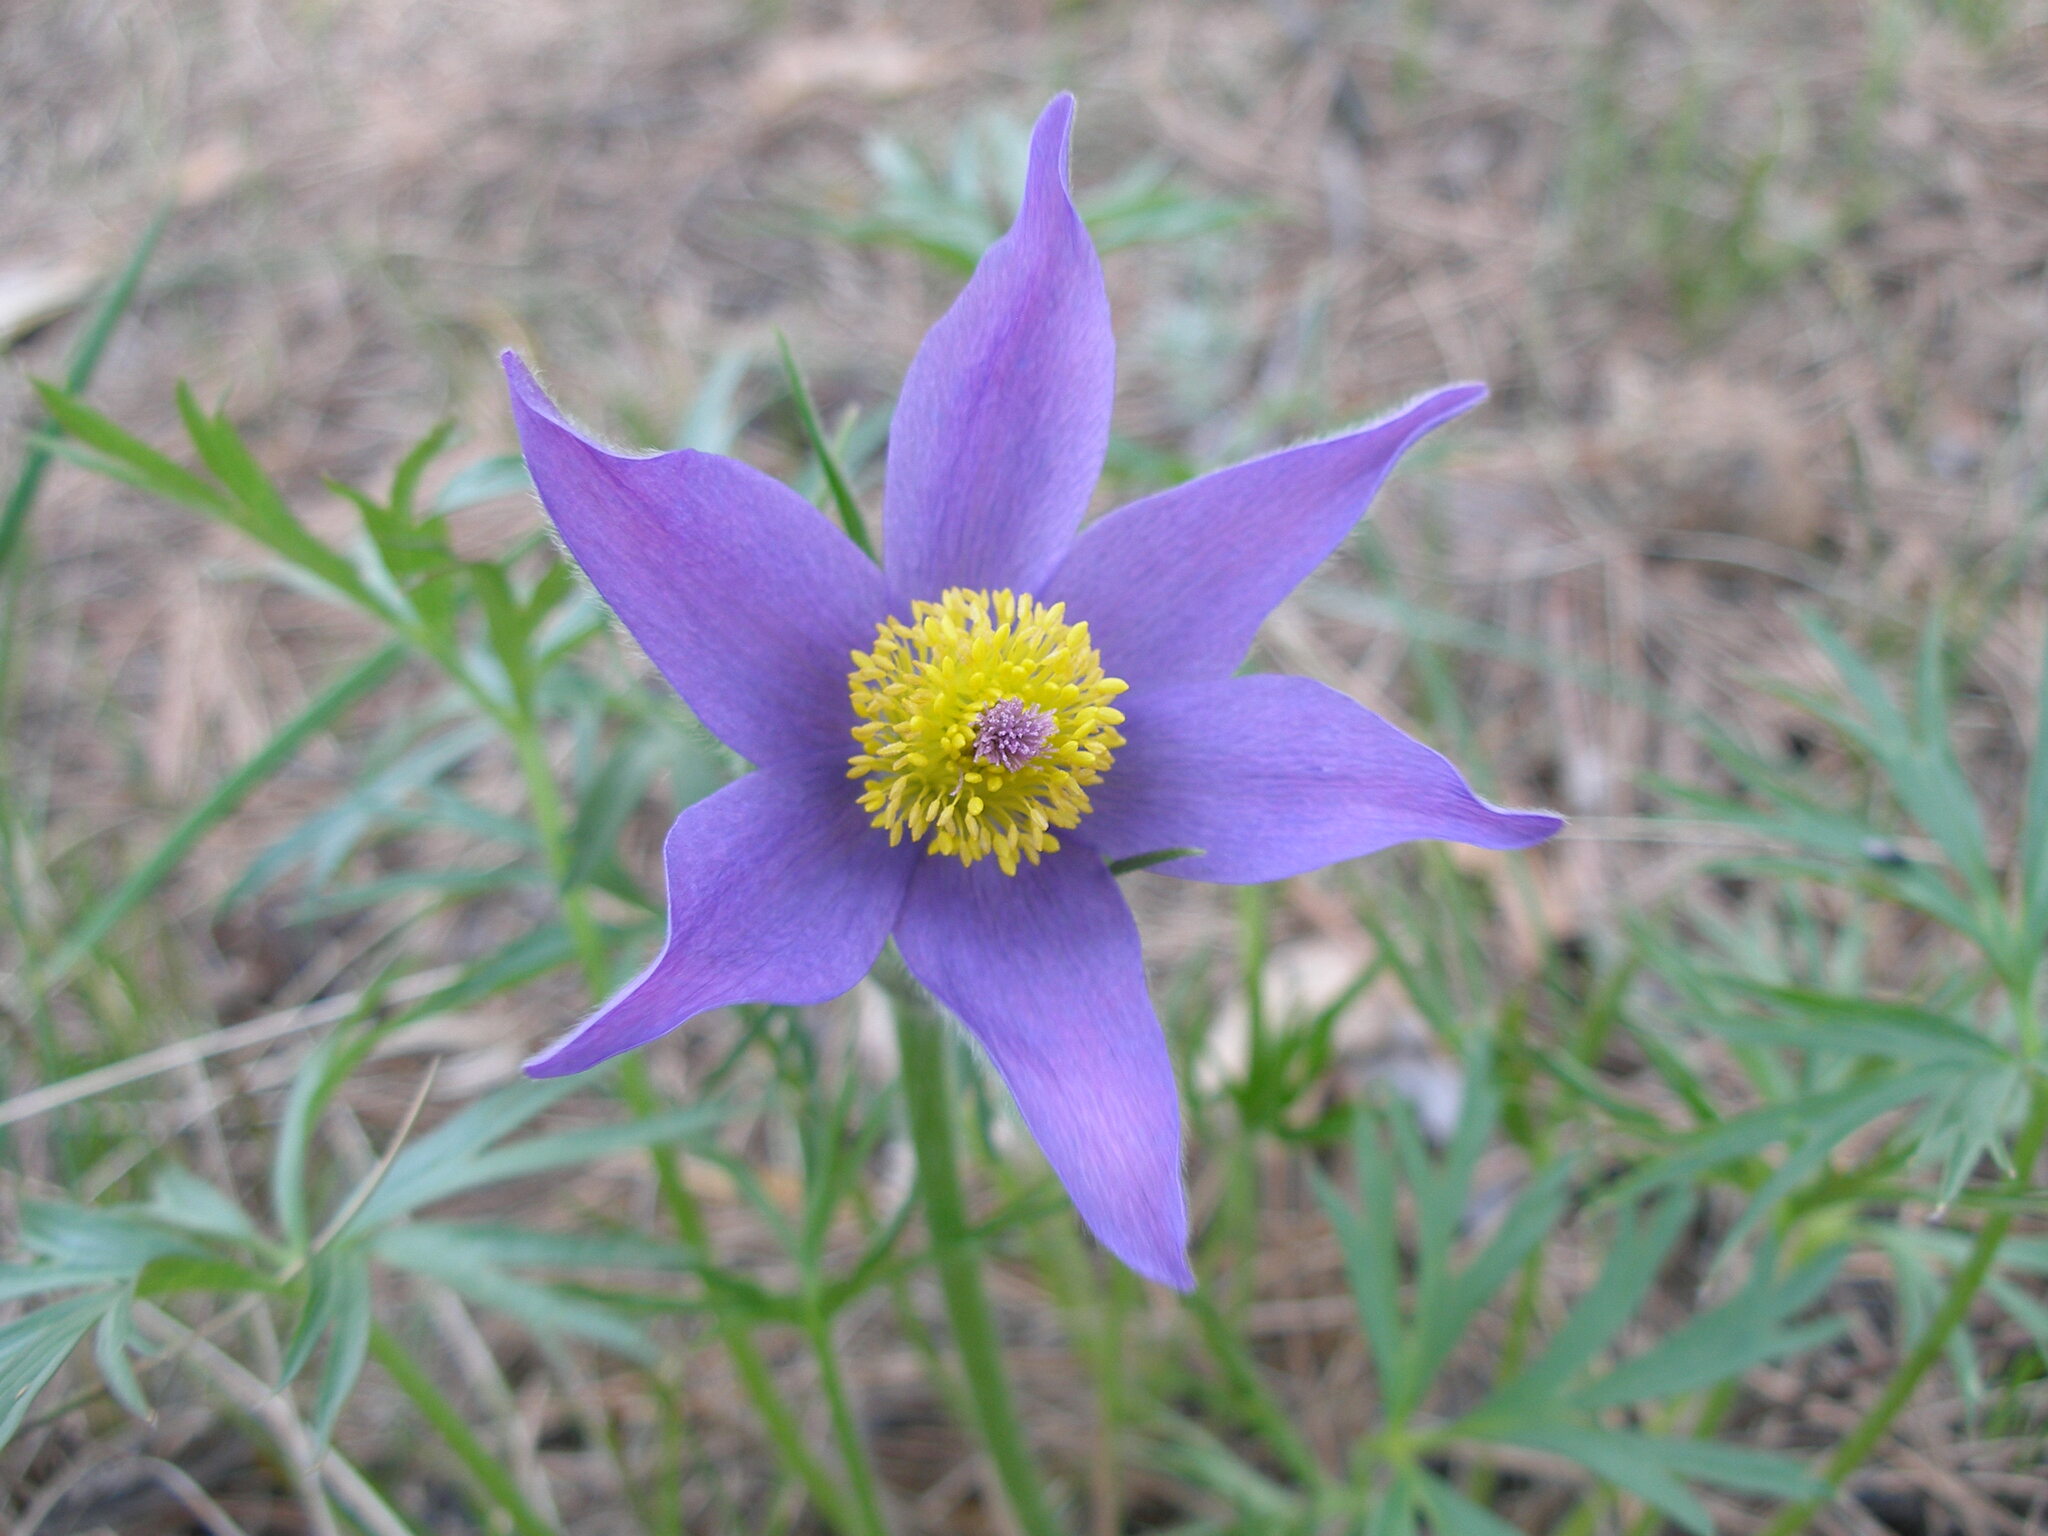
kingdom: Plantae
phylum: Tracheophyta
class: Magnoliopsida
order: Ranunculales
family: Ranunculaceae
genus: Pulsatilla
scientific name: Pulsatilla patens
